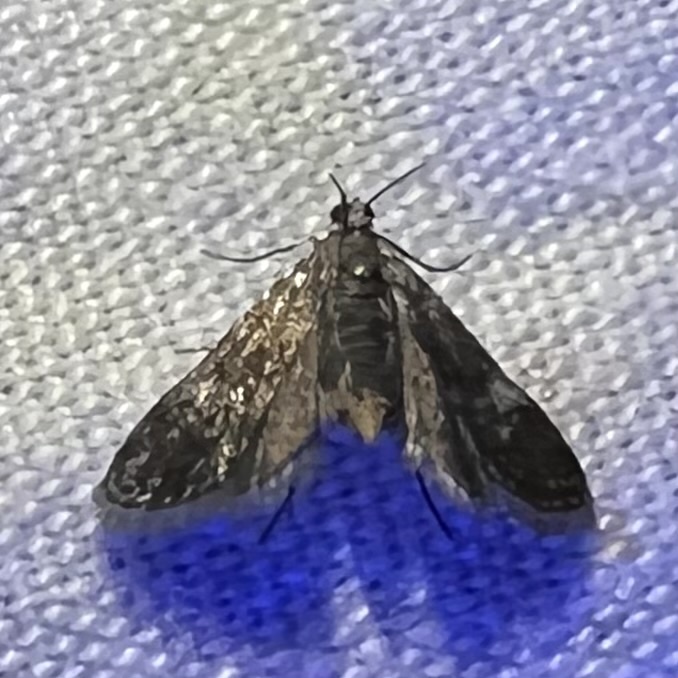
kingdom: Animalia
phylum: Arthropoda
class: Insecta
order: Lepidoptera
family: Crambidae
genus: Elophila
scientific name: Elophila tinealis
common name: Black duckweed moth
